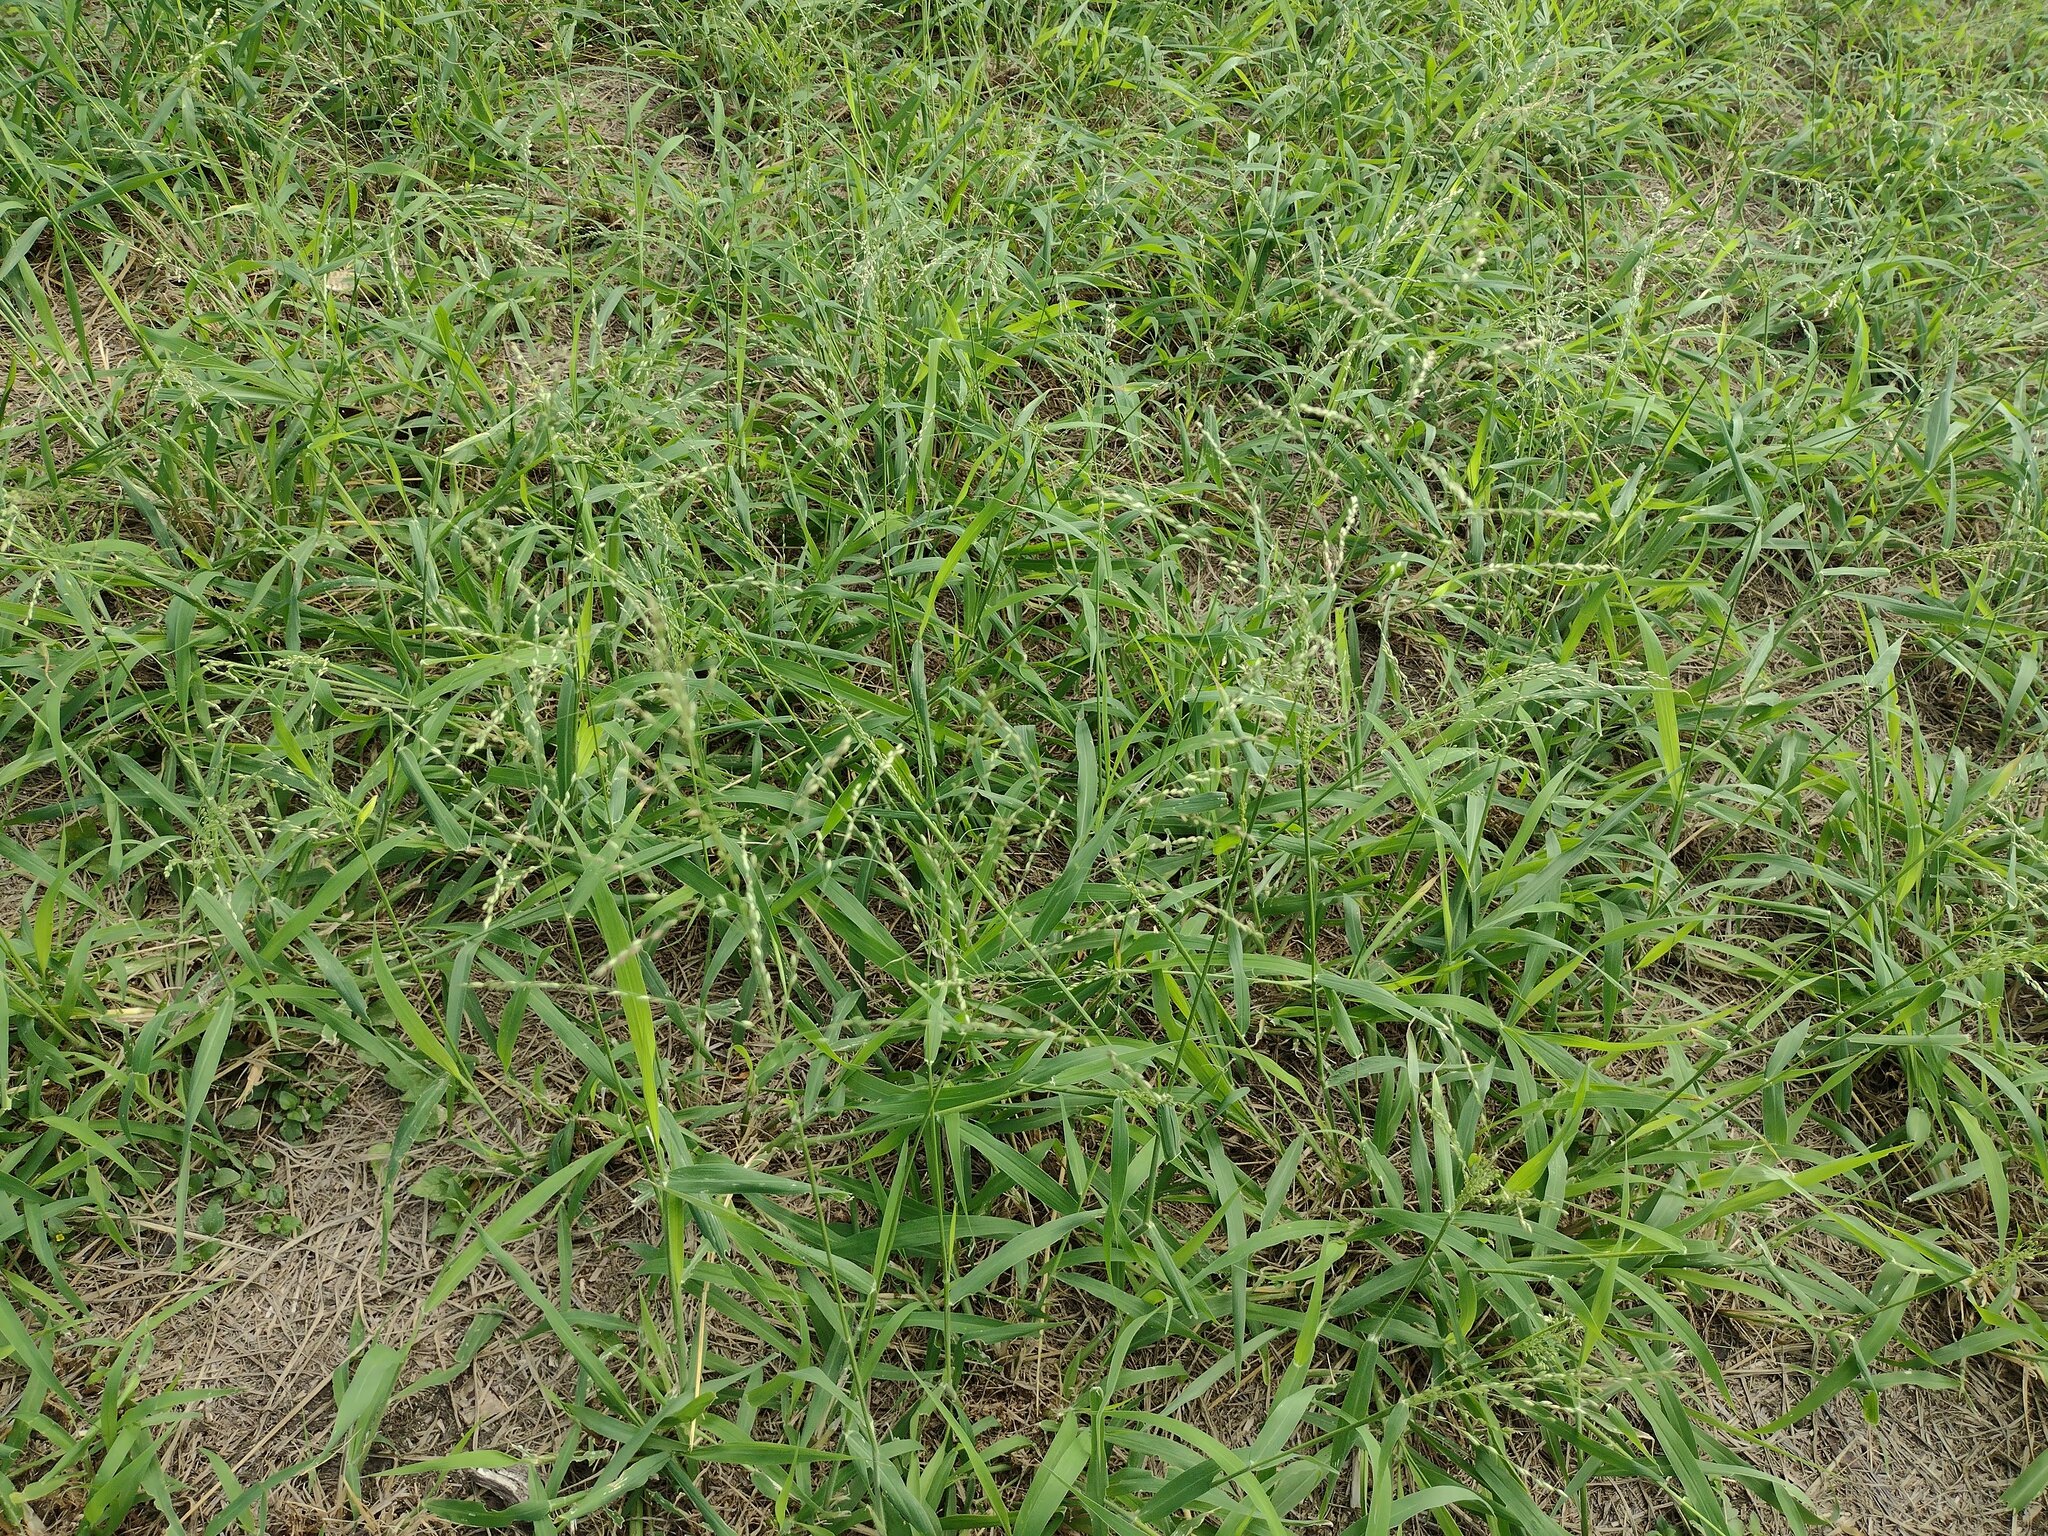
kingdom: Plantae
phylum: Tracheophyta
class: Liliopsida
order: Poales
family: Poaceae
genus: Megathyrsus
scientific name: Megathyrsus maximus
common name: Guineagrass
